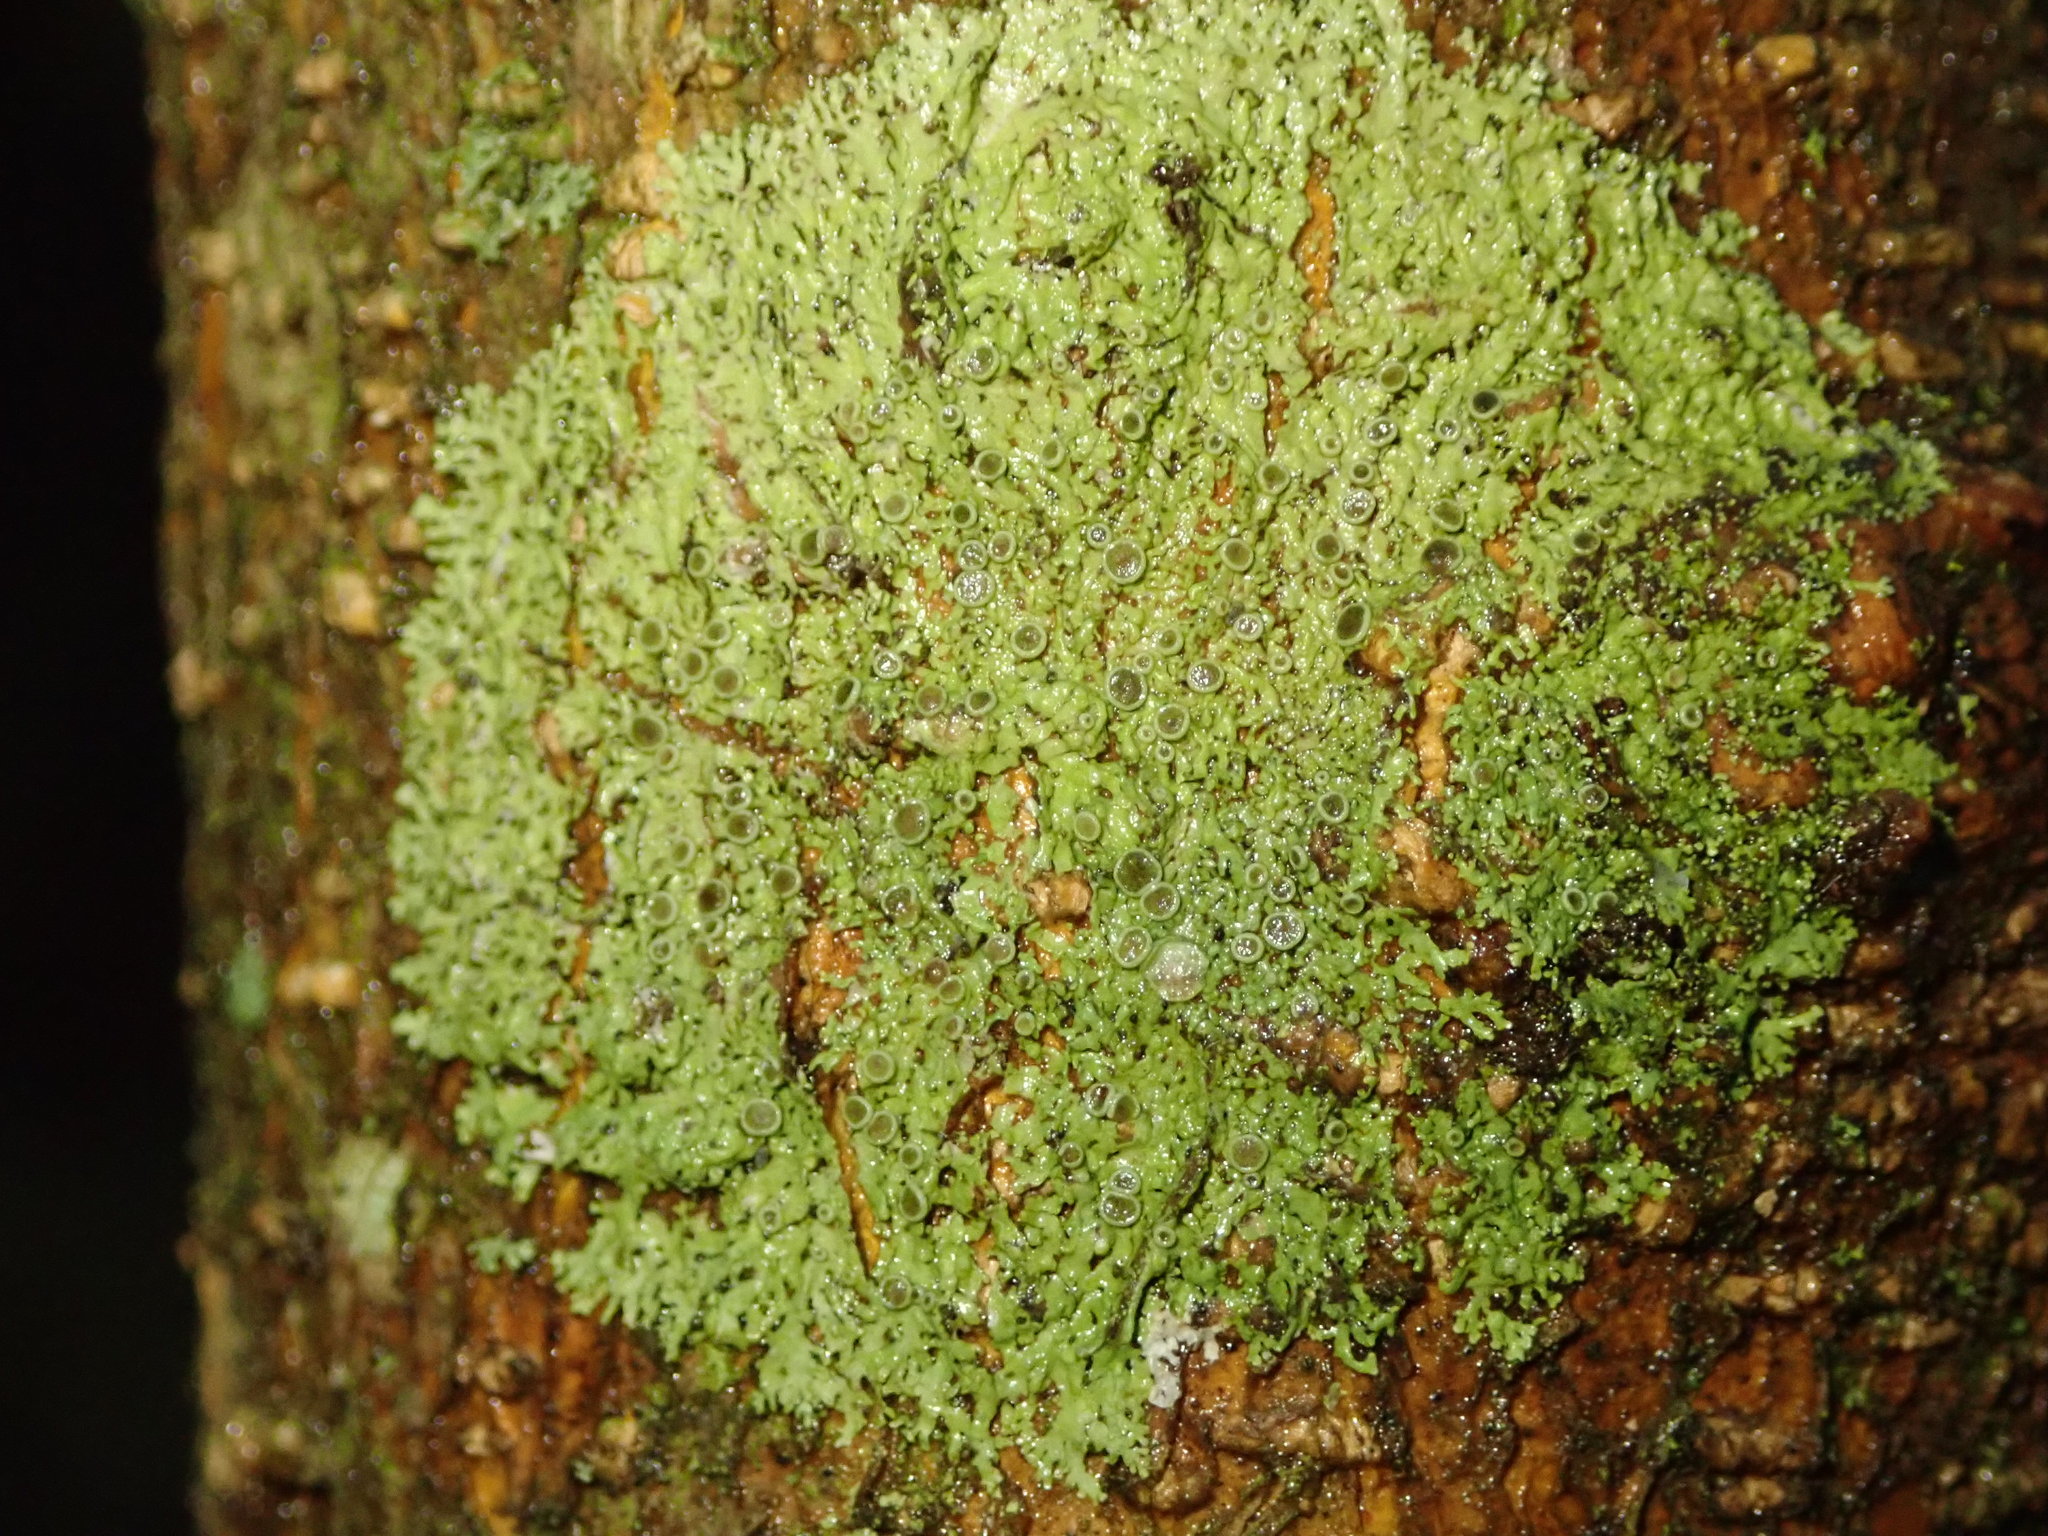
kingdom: Fungi
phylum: Ascomycota
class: Lecanoromycetes
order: Caliciales
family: Physciaceae
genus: Hyperphyscia
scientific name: Hyperphyscia syncolla
